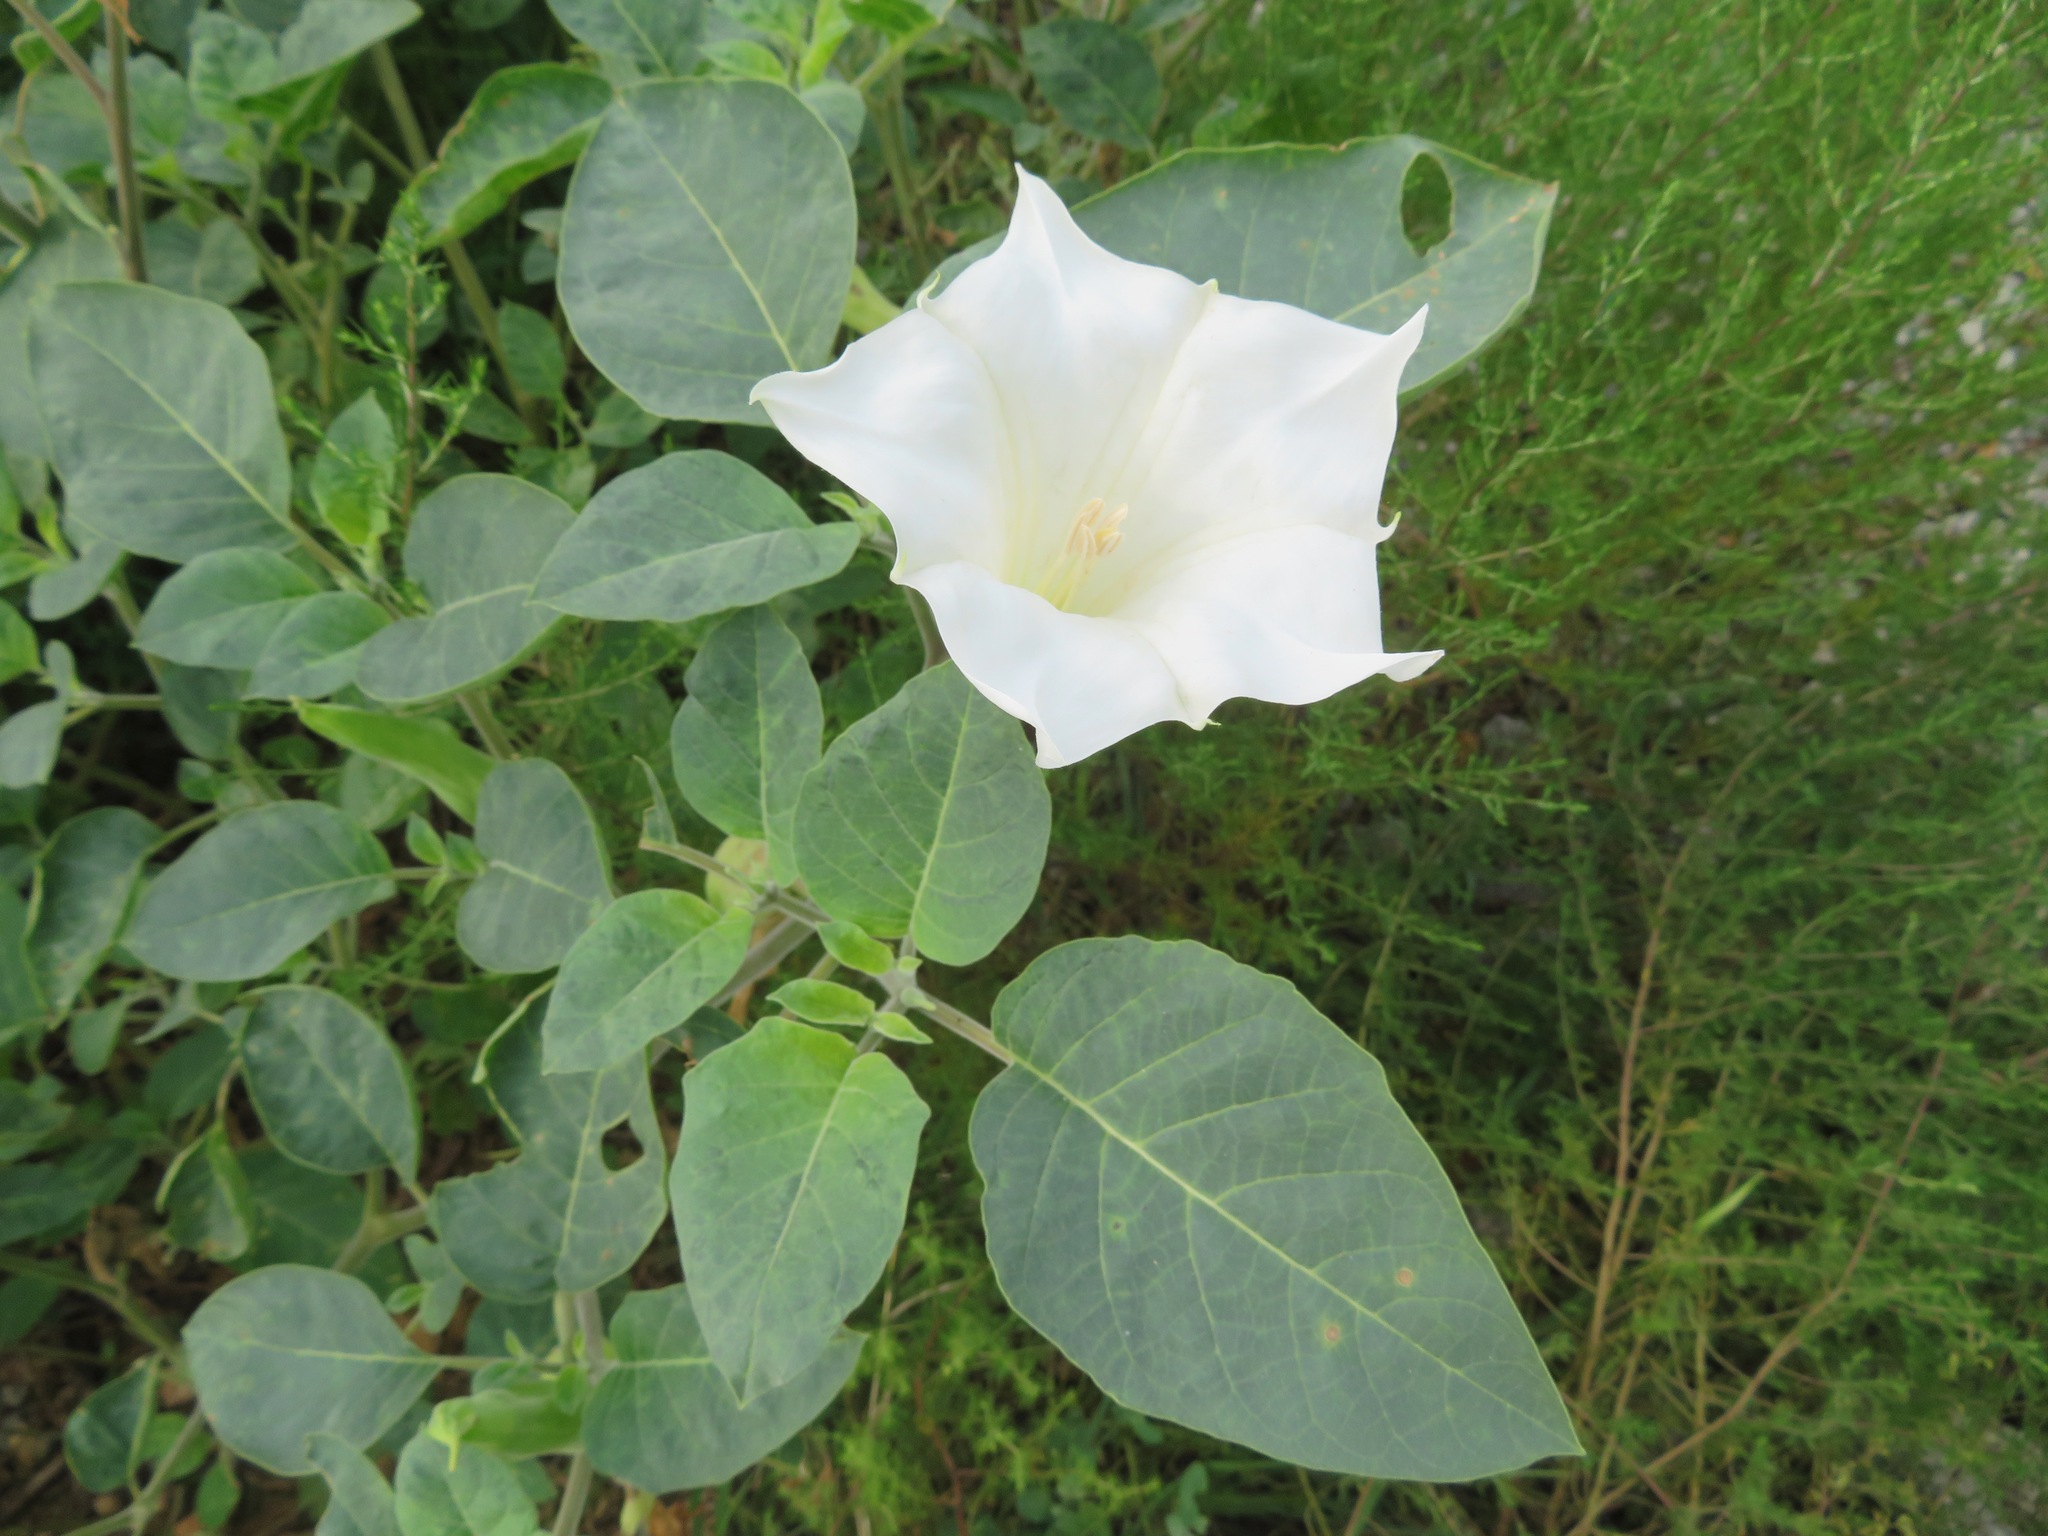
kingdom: Plantae
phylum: Tracheophyta
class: Magnoliopsida
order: Solanales
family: Solanaceae
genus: Datura
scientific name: Datura innoxia
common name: Downy thorn-apple
